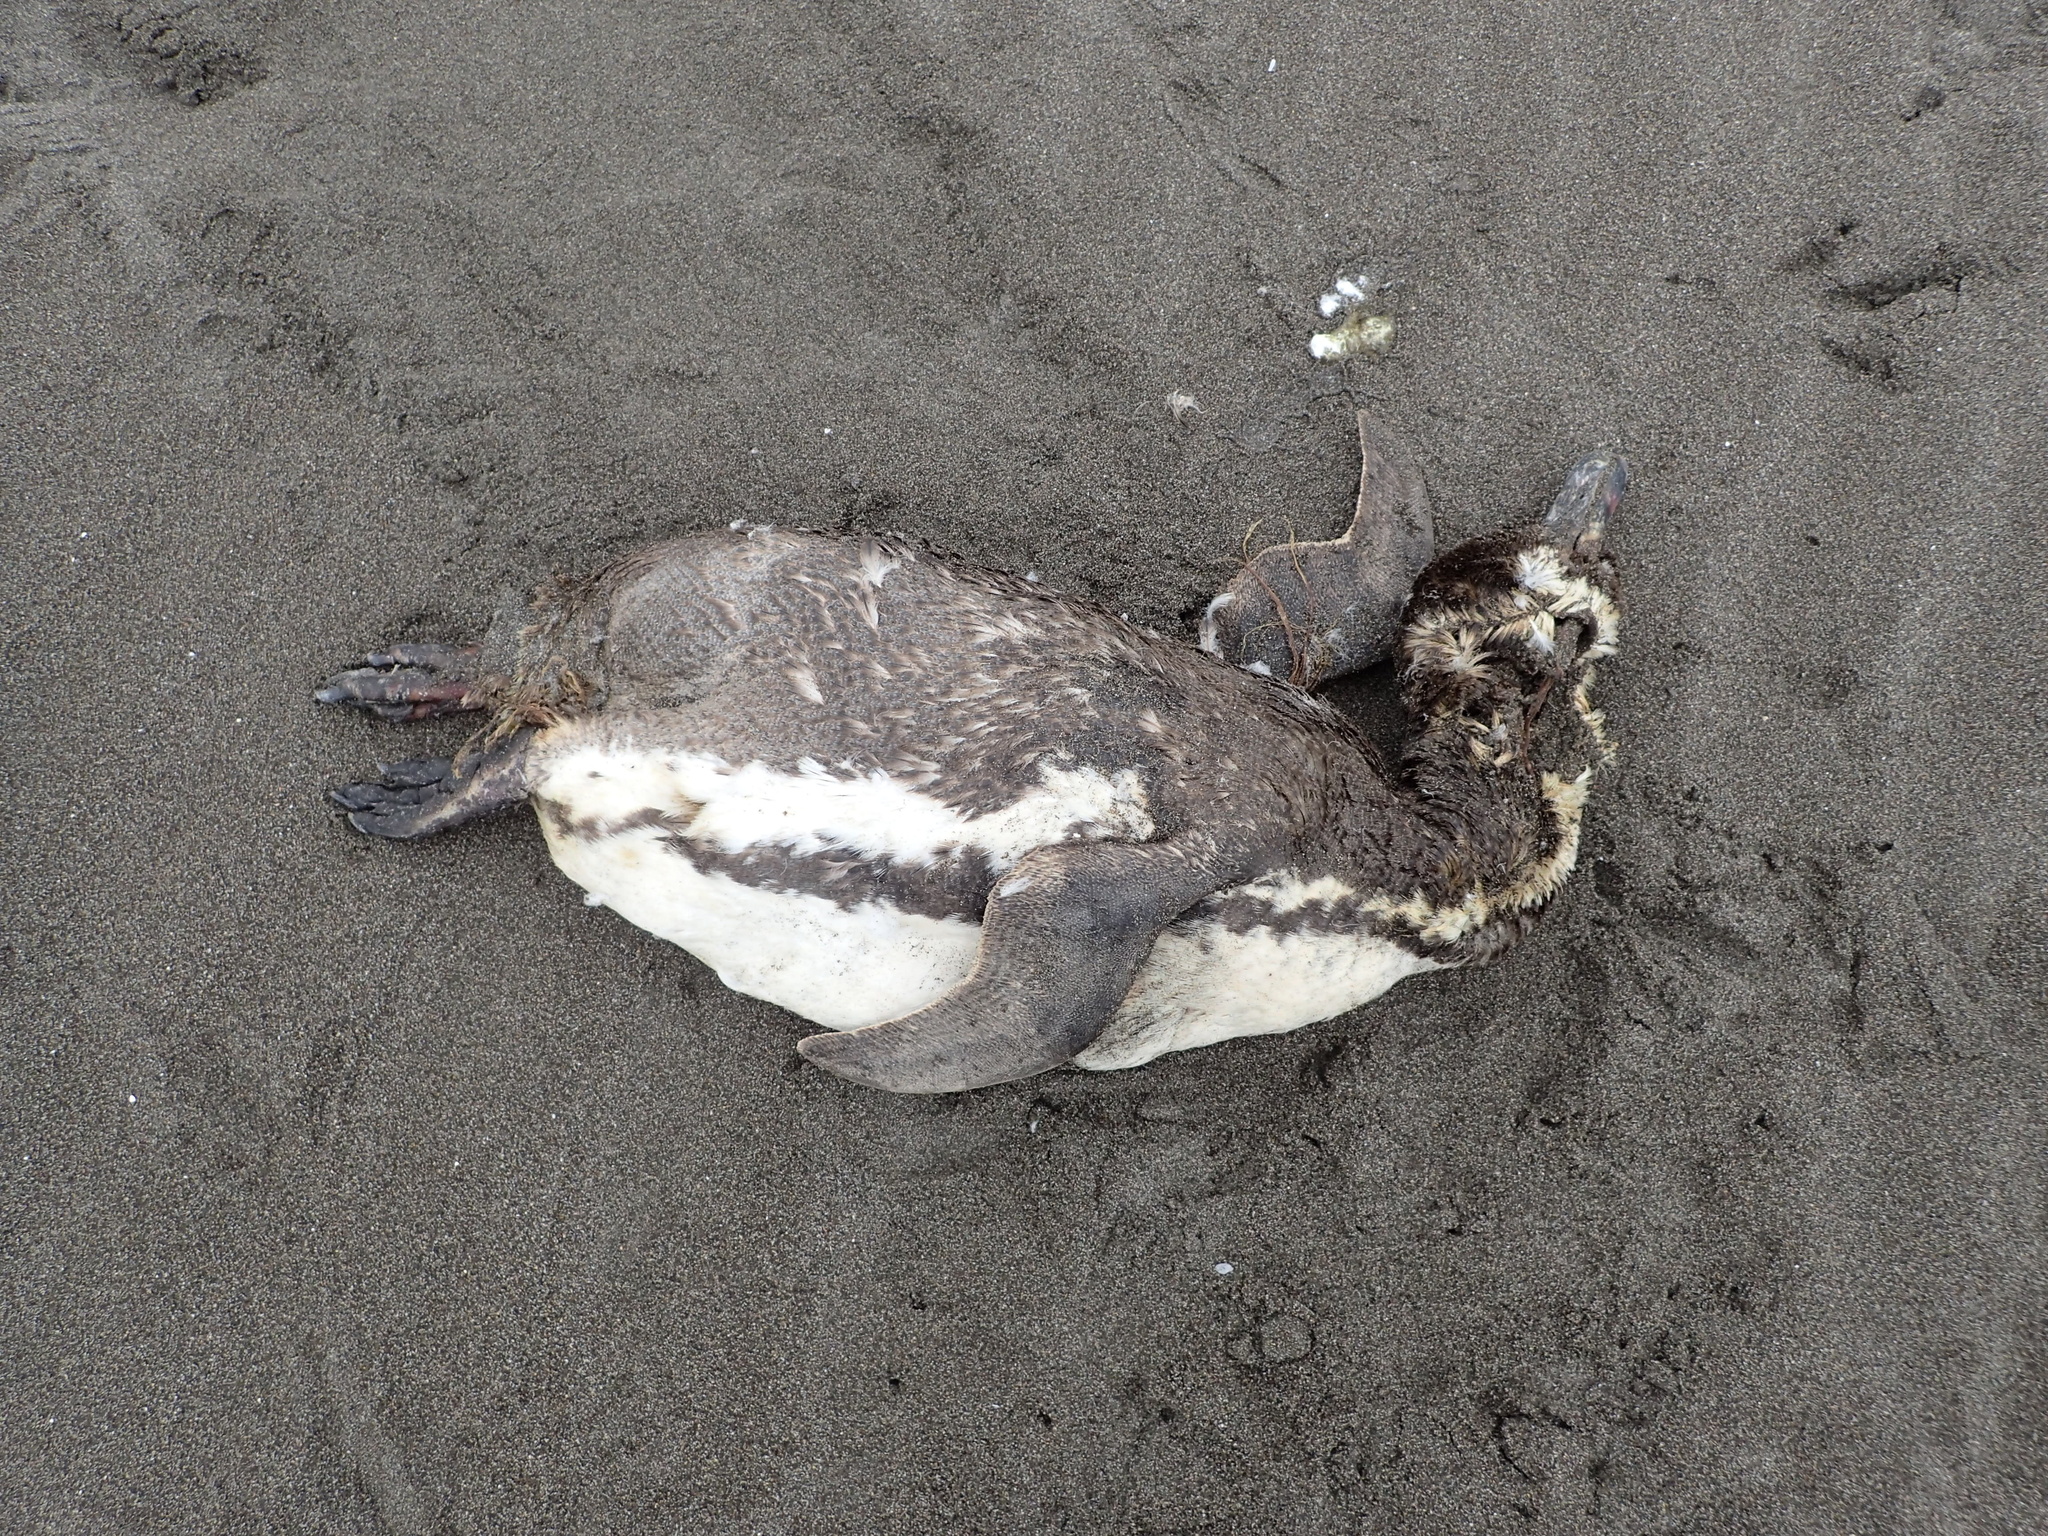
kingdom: Animalia
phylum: Chordata
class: Aves
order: Sphenisciformes
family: Spheniscidae
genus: Spheniscus
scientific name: Spheniscus humboldti
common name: Humboldt penguin
